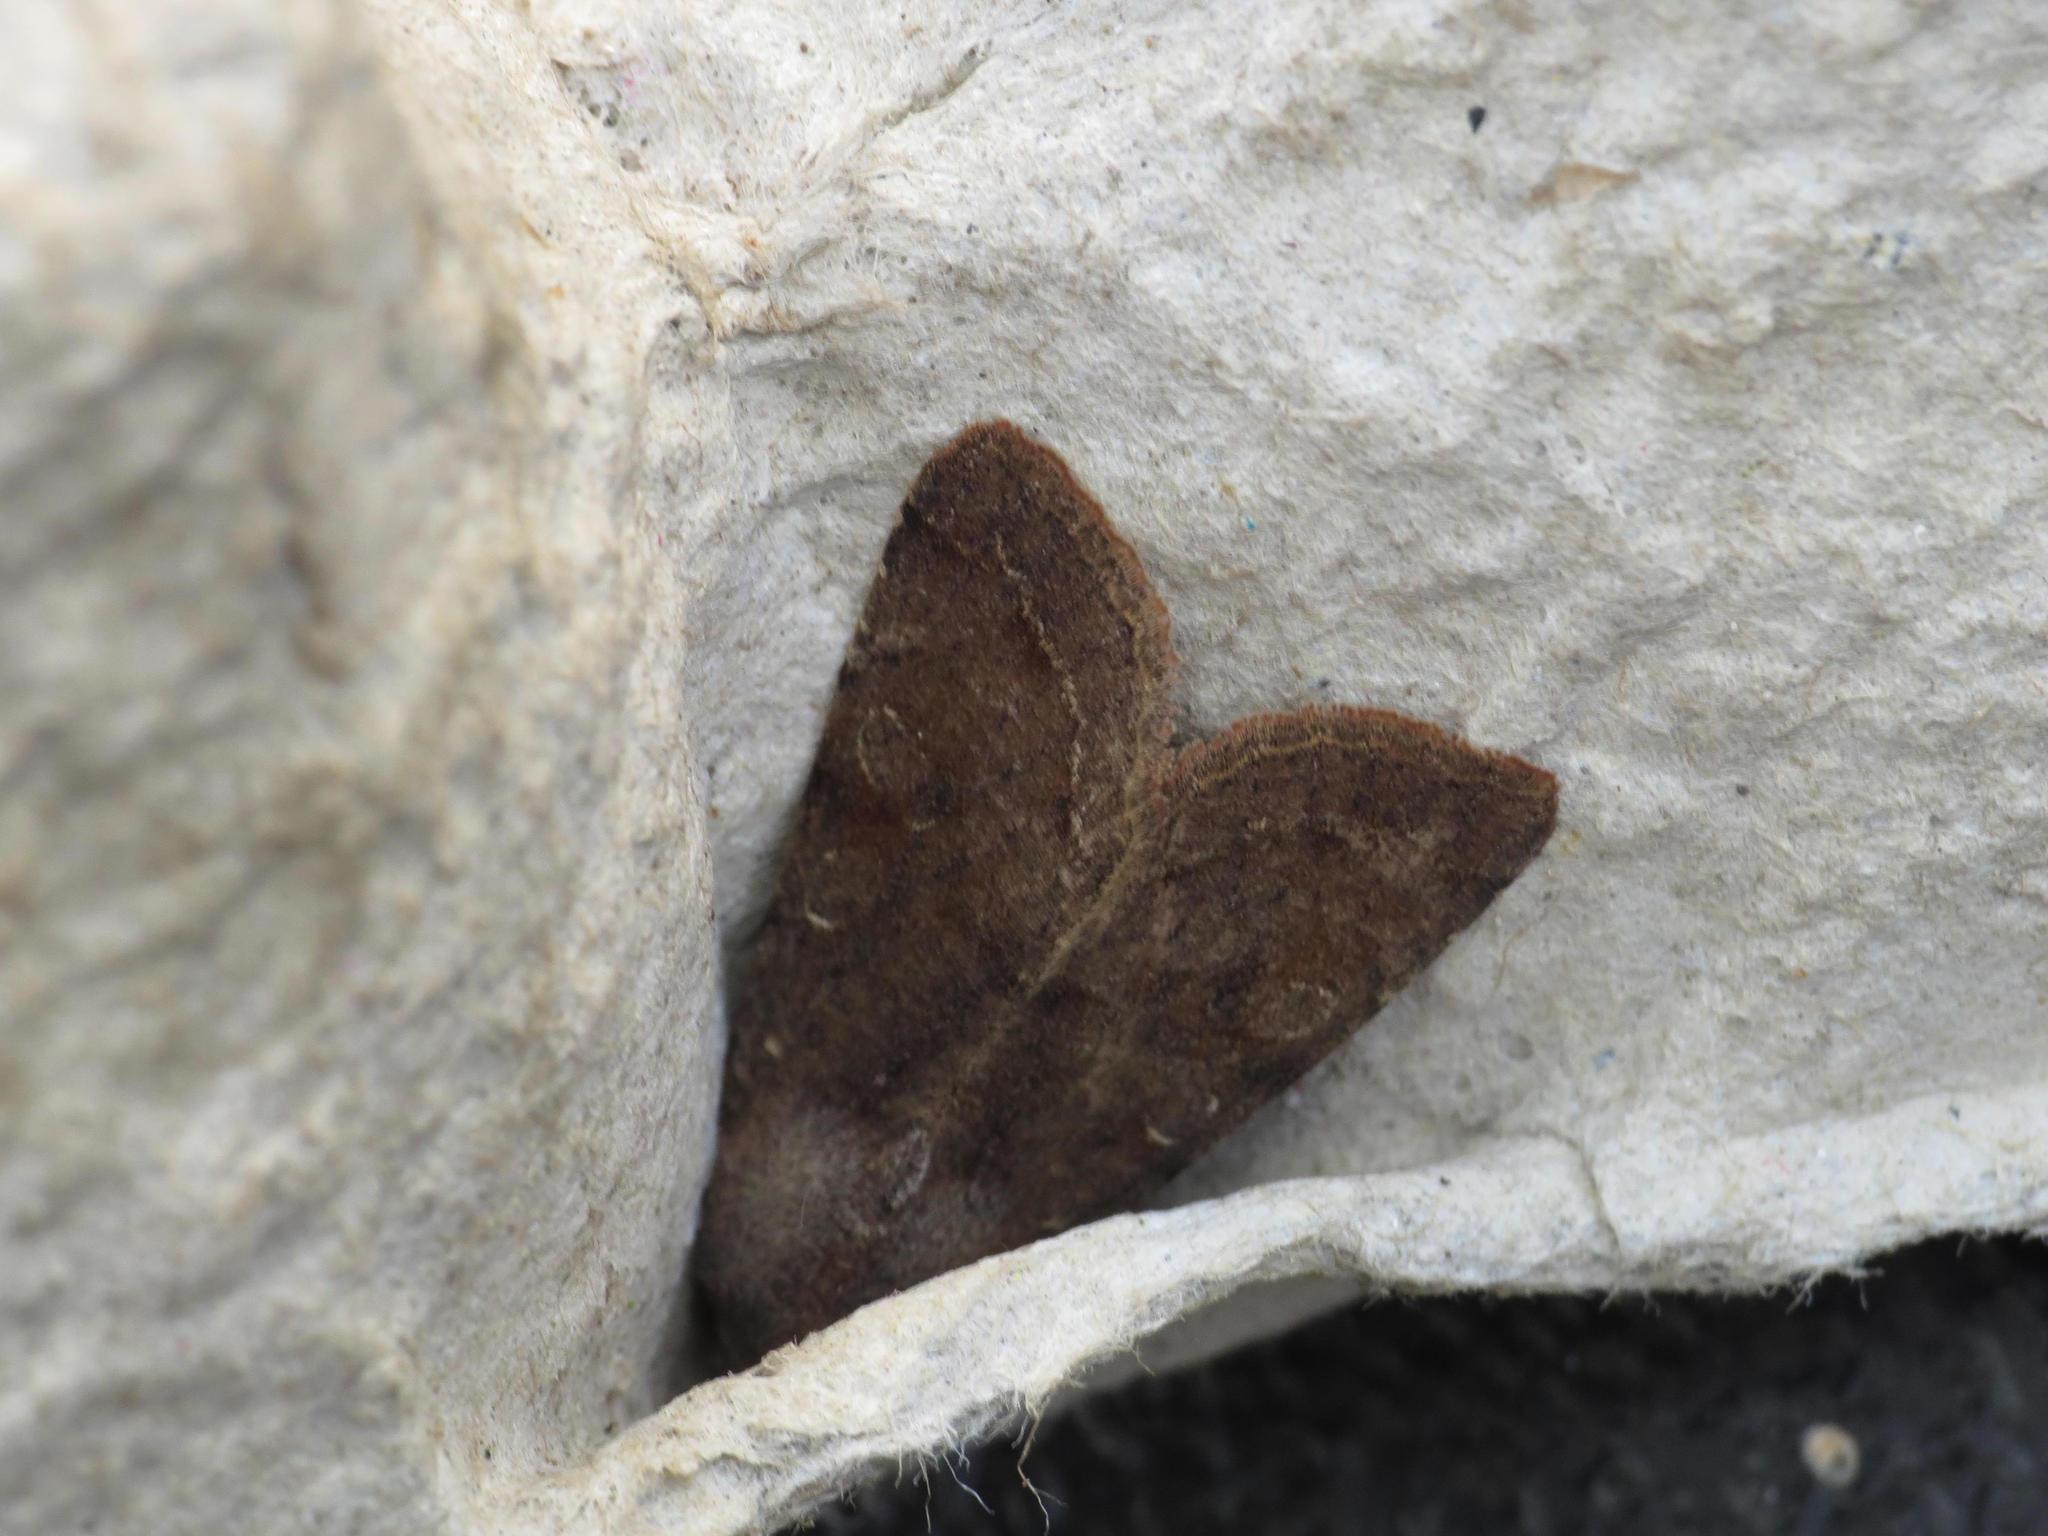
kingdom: Animalia
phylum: Arthropoda
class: Insecta
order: Lepidoptera
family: Noctuidae
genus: Orthosia
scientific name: Orthosia incerta
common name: Clouded drab
